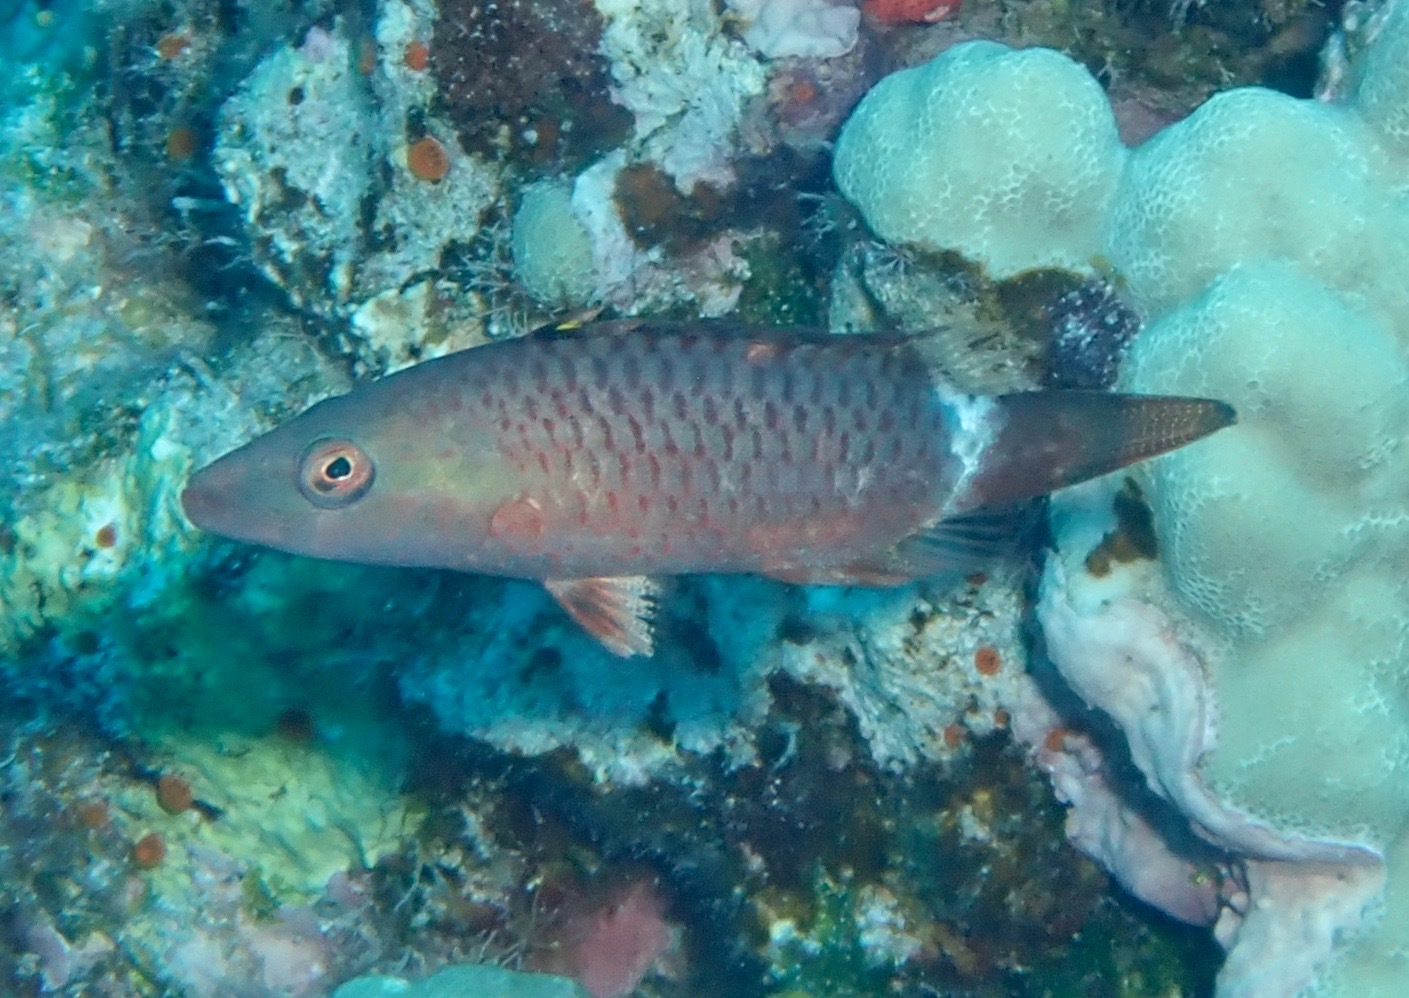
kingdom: Animalia
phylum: Chordata
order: Perciformes
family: Labridae
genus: Oxycheilinus
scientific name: Oxycheilinus unifasciatus
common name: Ringtail maori wrasse
